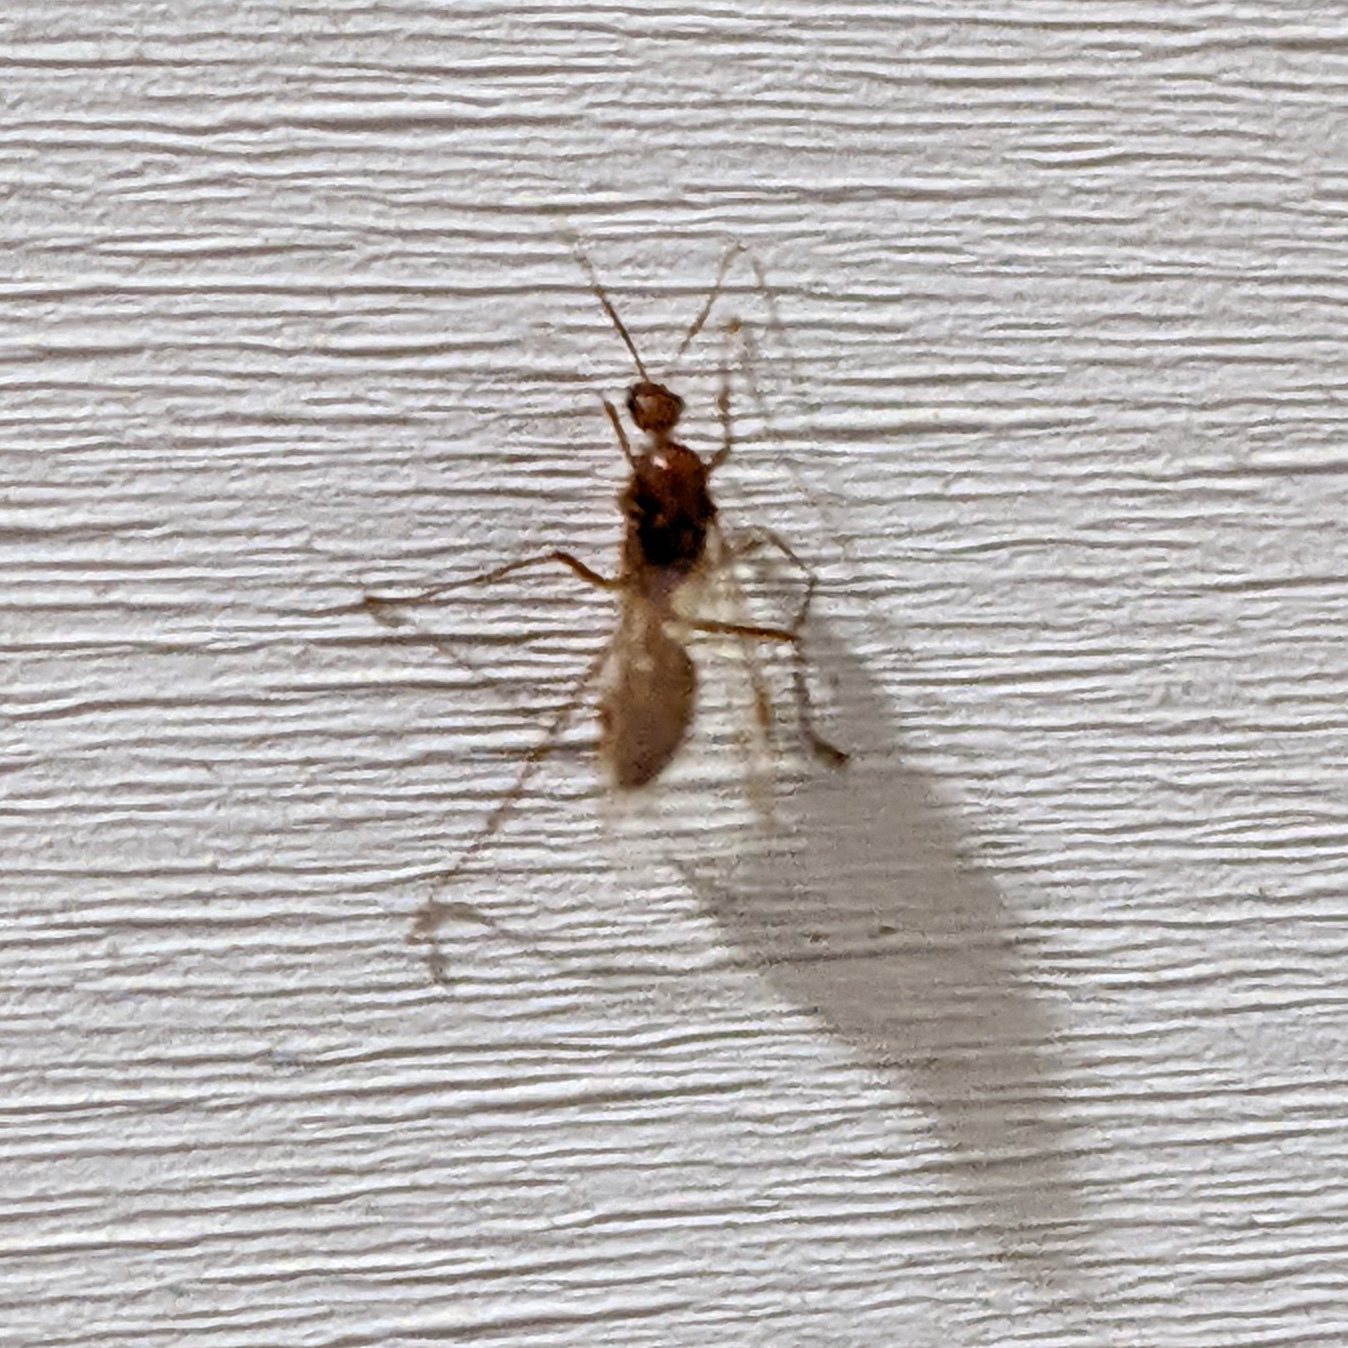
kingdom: Animalia
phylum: Arthropoda
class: Insecta
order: Hymenoptera
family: Formicidae
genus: Camponotus
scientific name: Camponotus castaneus
